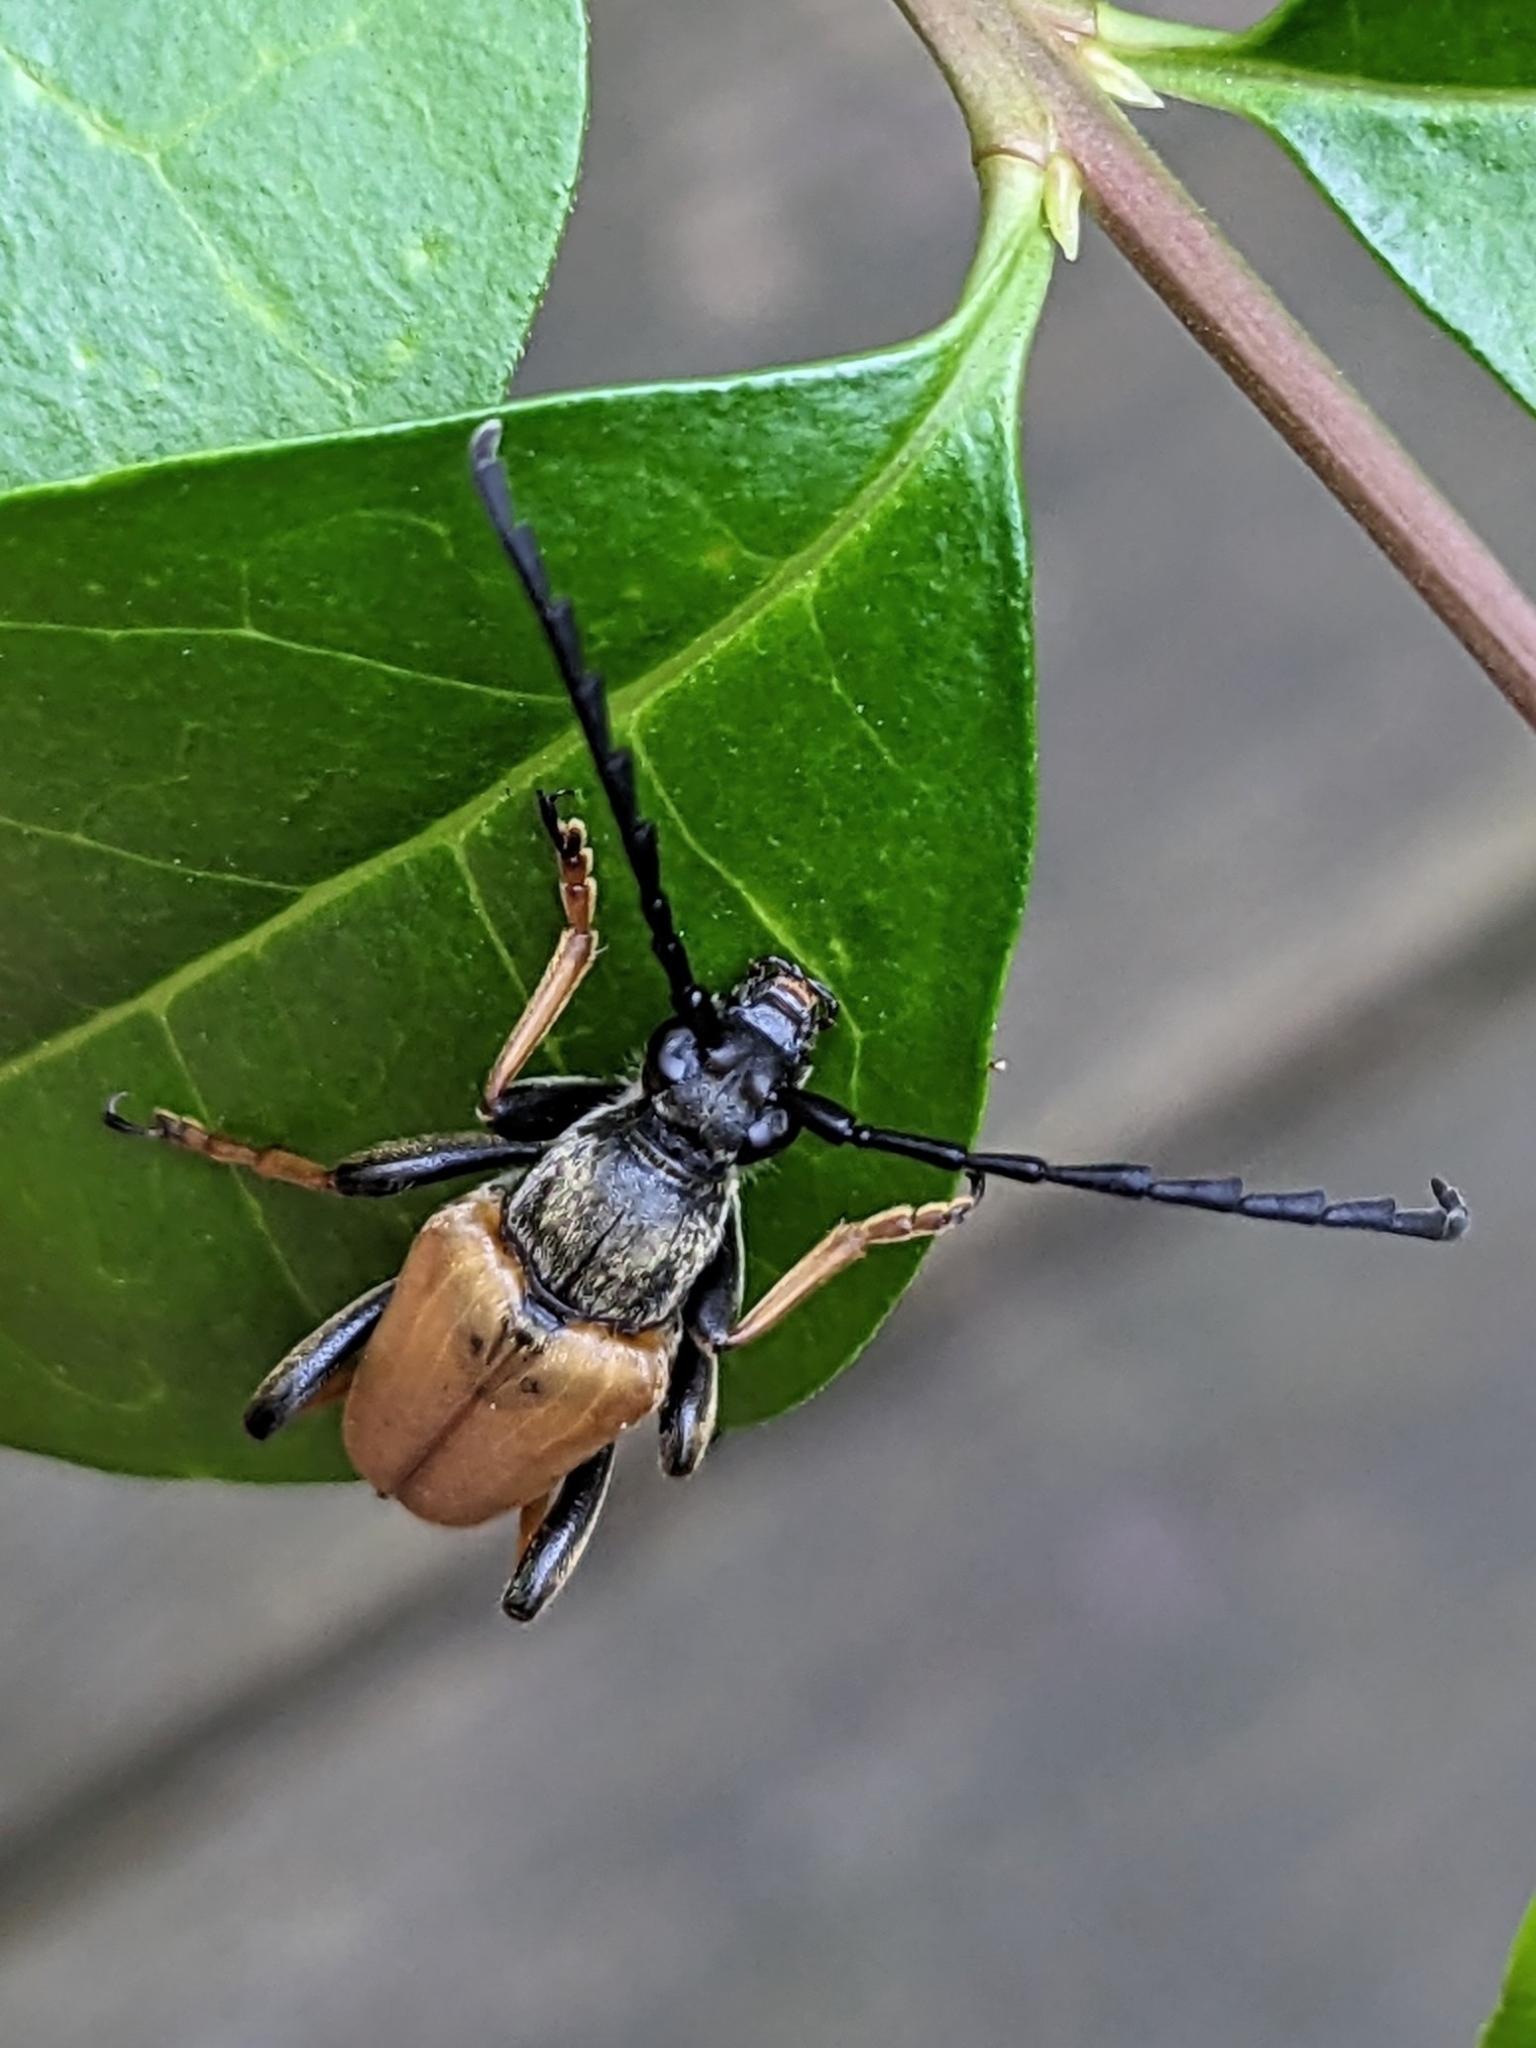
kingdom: Animalia
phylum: Arthropoda
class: Insecta
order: Coleoptera
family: Cerambycidae
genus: Stictoleptura
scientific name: Stictoleptura rubra
